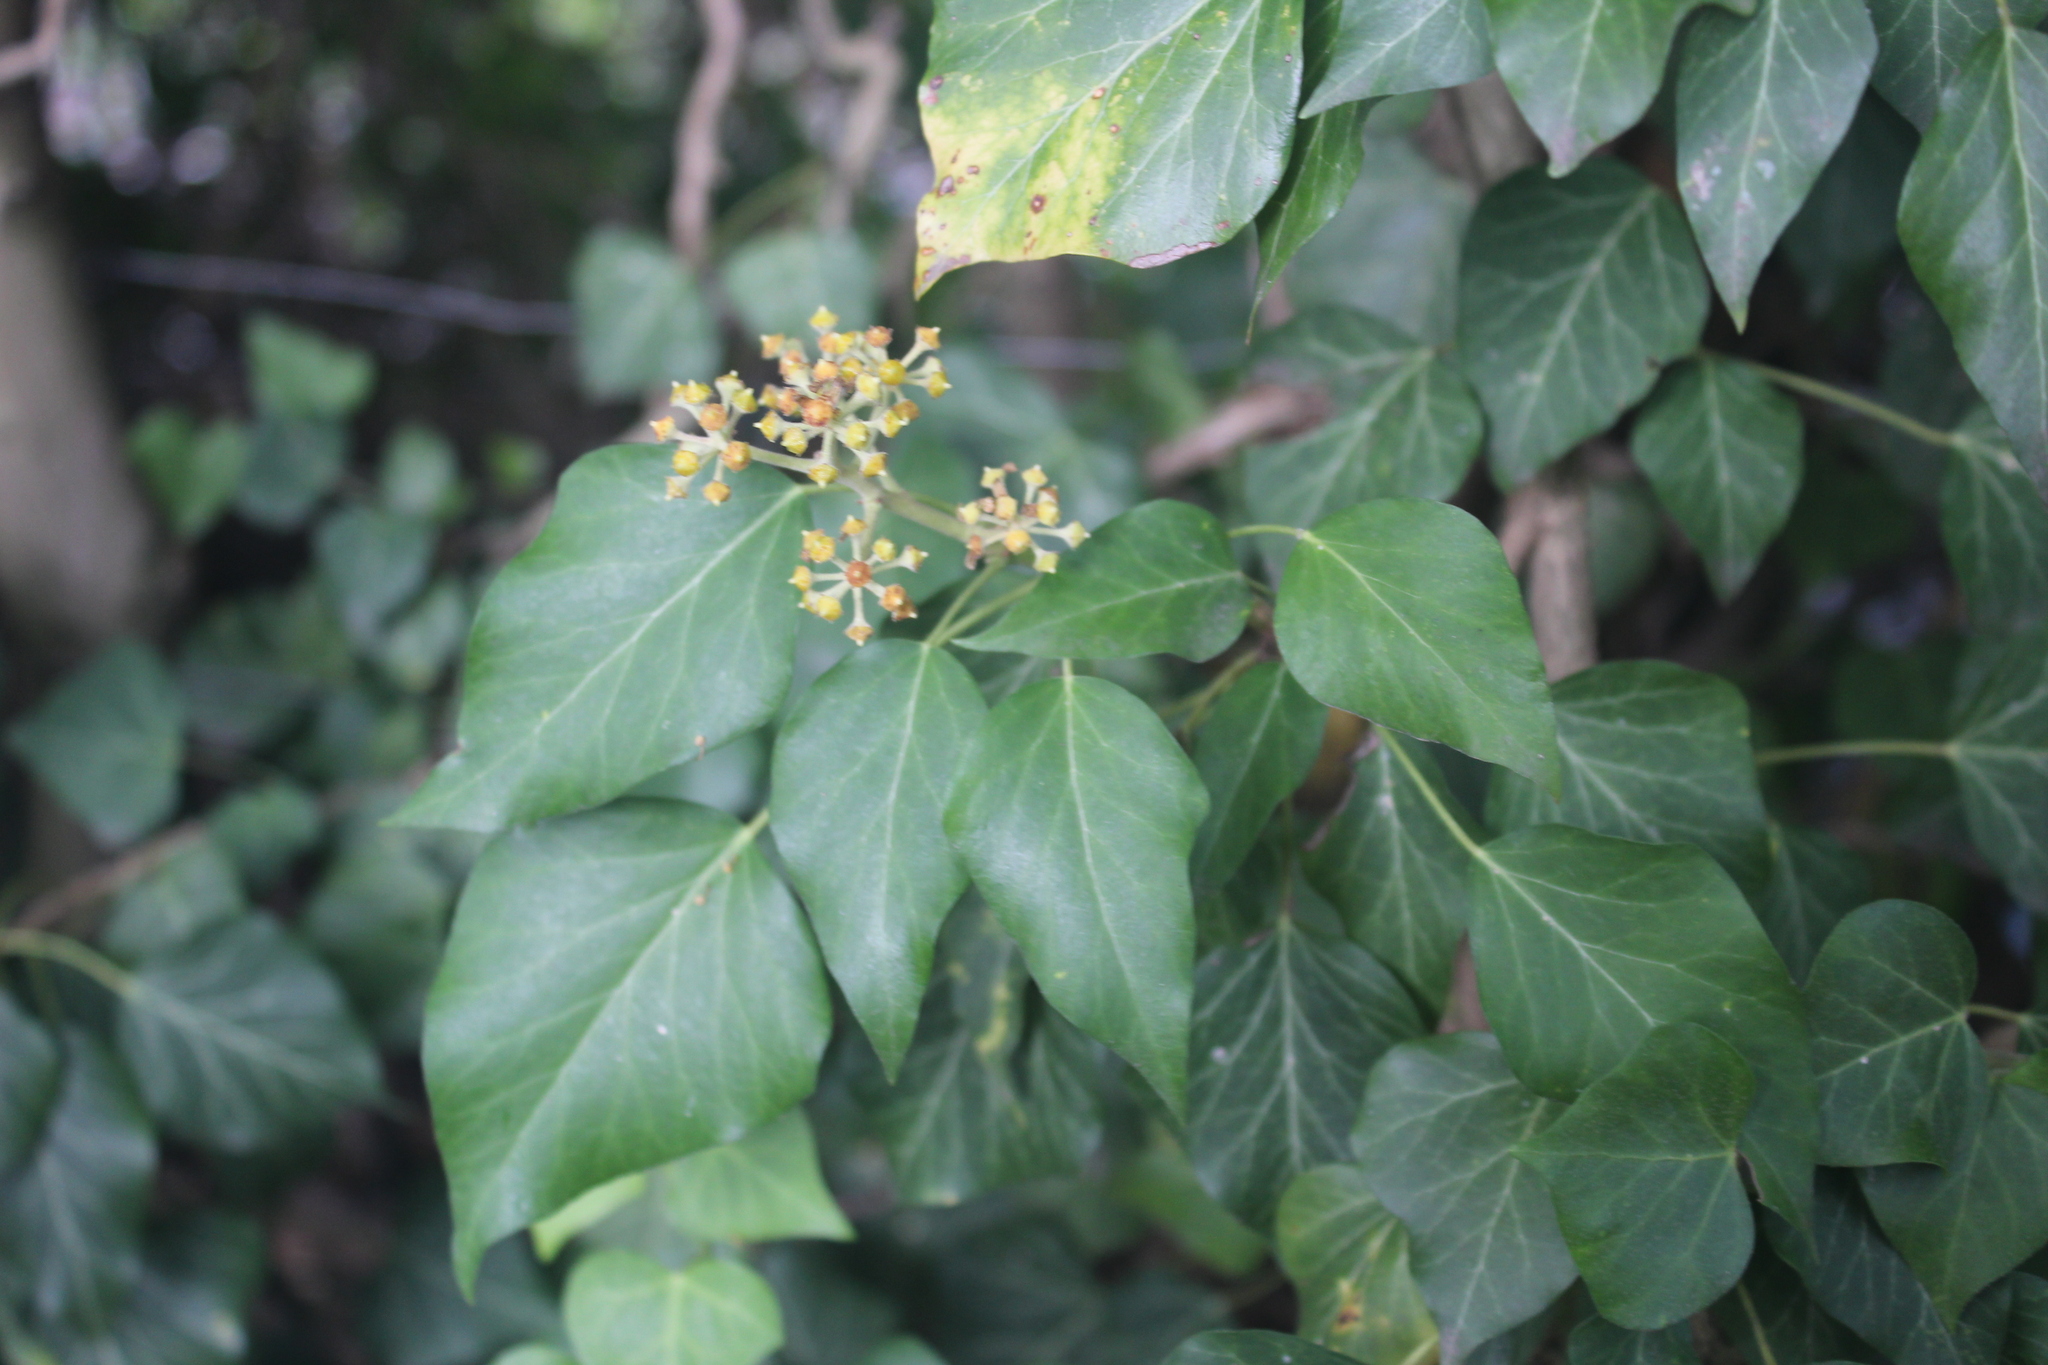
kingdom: Plantae
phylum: Tracheophyta
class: Magnoliopsida
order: Apiales
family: Araliaceae
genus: Hedera
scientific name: Hedera helix
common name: Ivy
